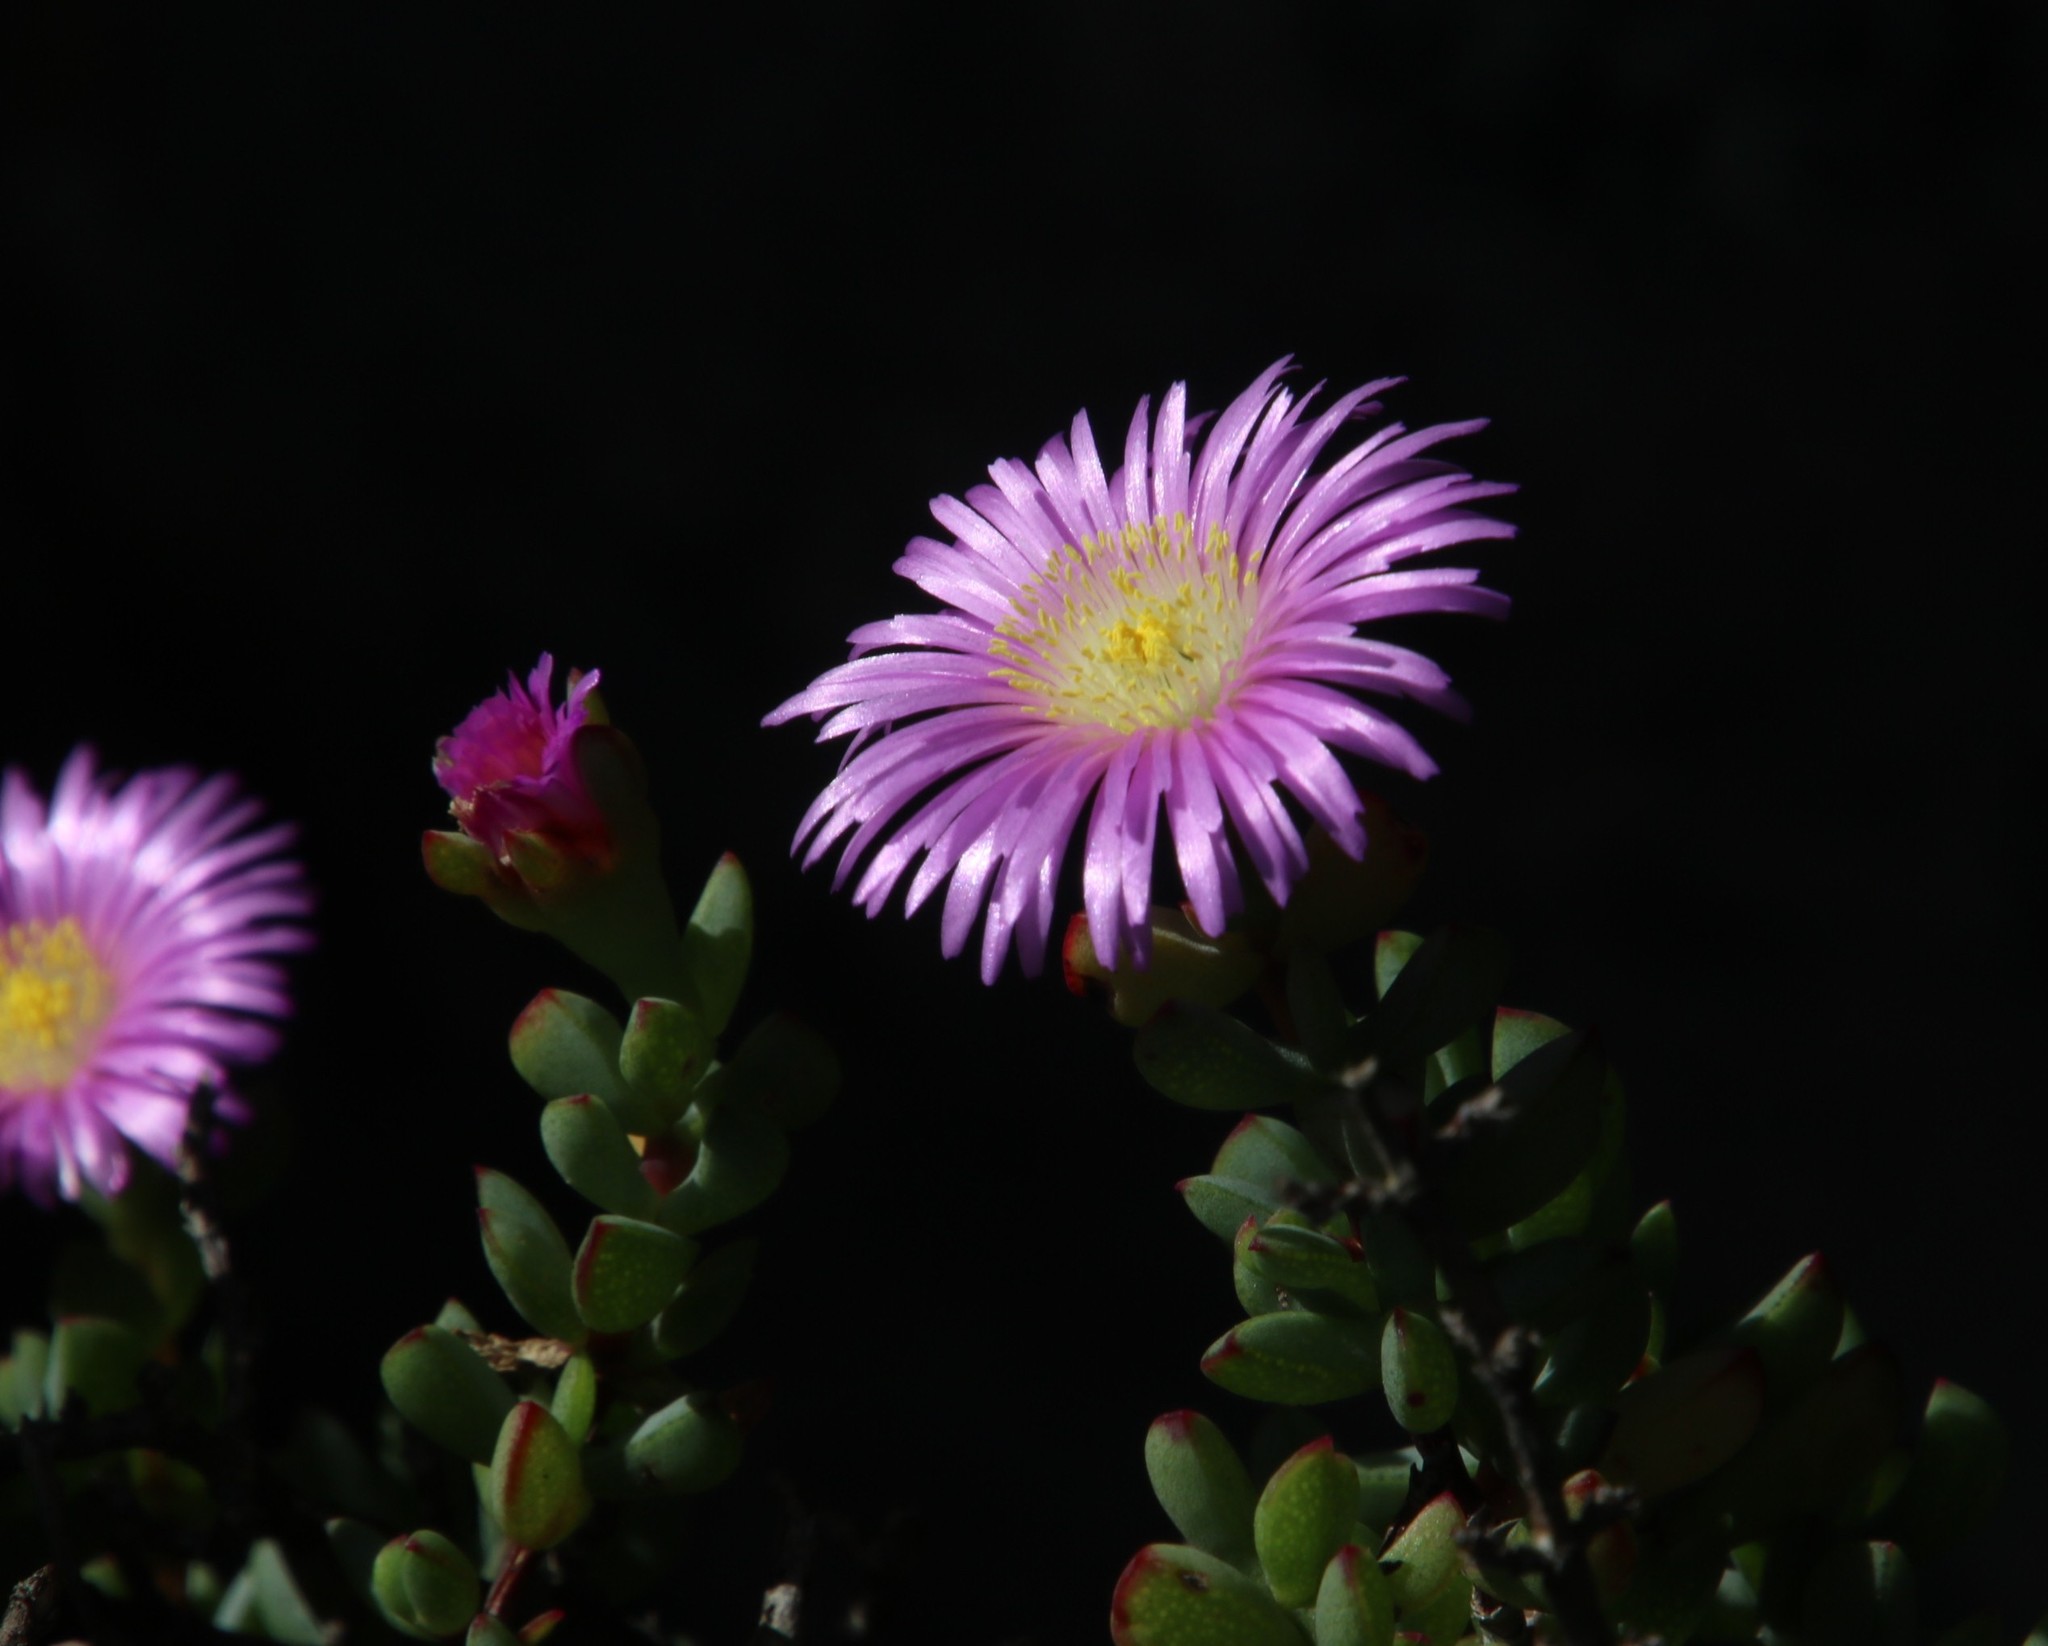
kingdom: Plantae
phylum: Tracheophyta
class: Magnoliopsida
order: Caryophyllales
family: Aizoaceae
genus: Oscularia
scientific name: Oscularia falciformis
